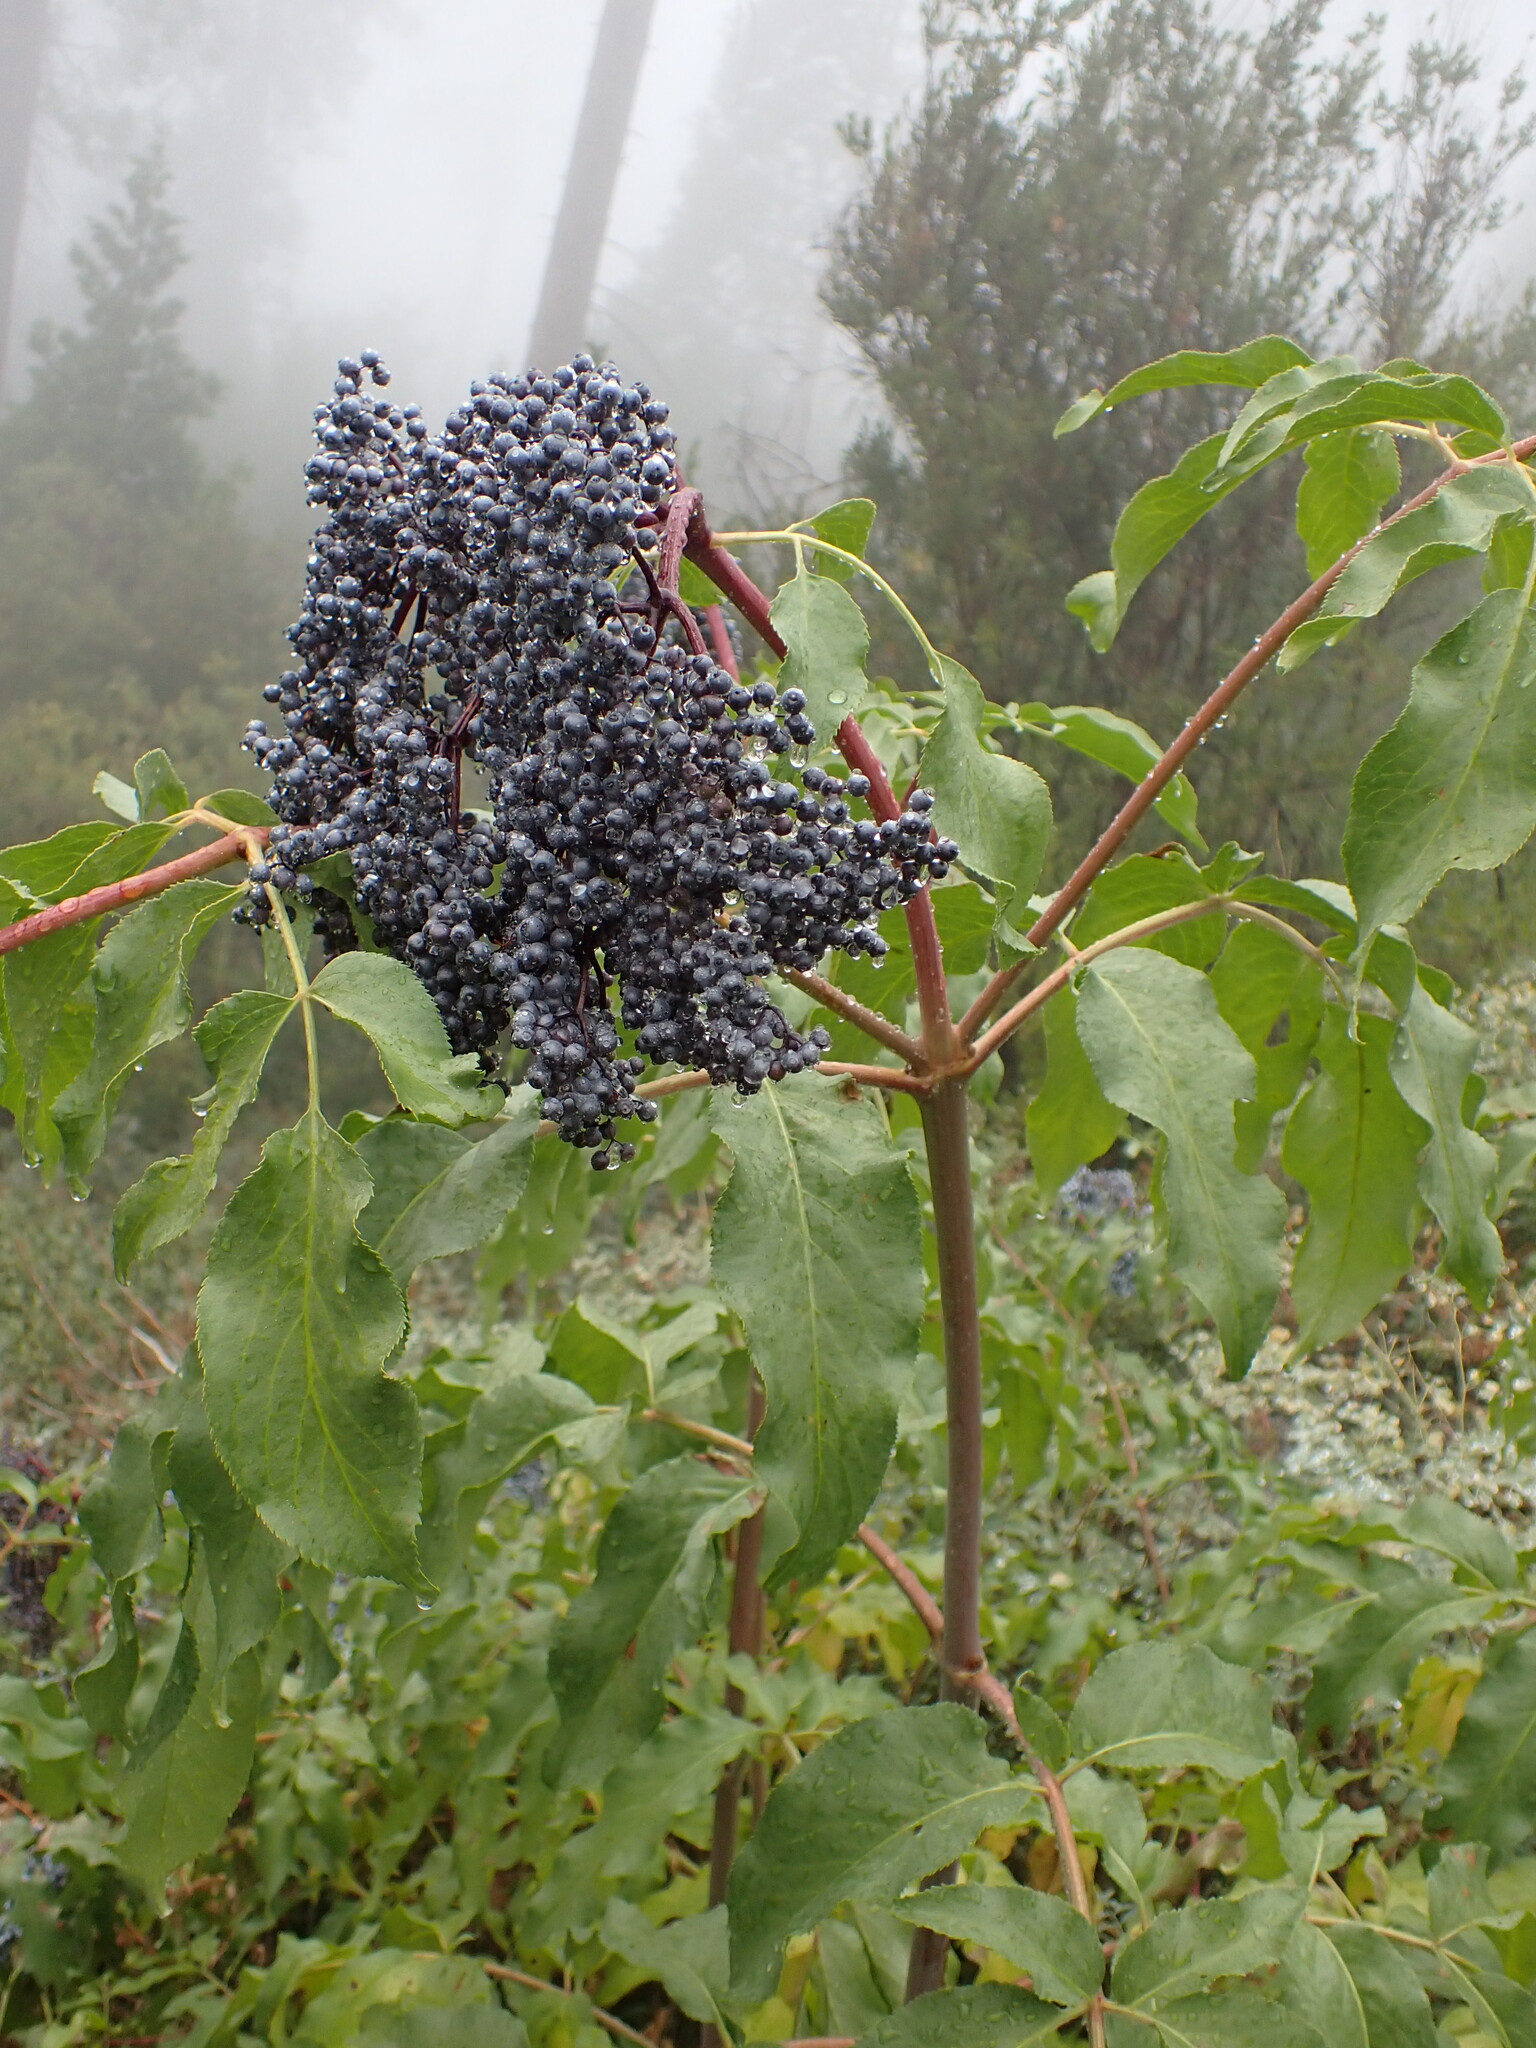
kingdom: Plantae
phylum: Tracheophyta
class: Magnoliopsida
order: Dipsacales
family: Viburnaceae
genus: Sambucus
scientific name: Sambucus cerulea
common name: Blue elder
